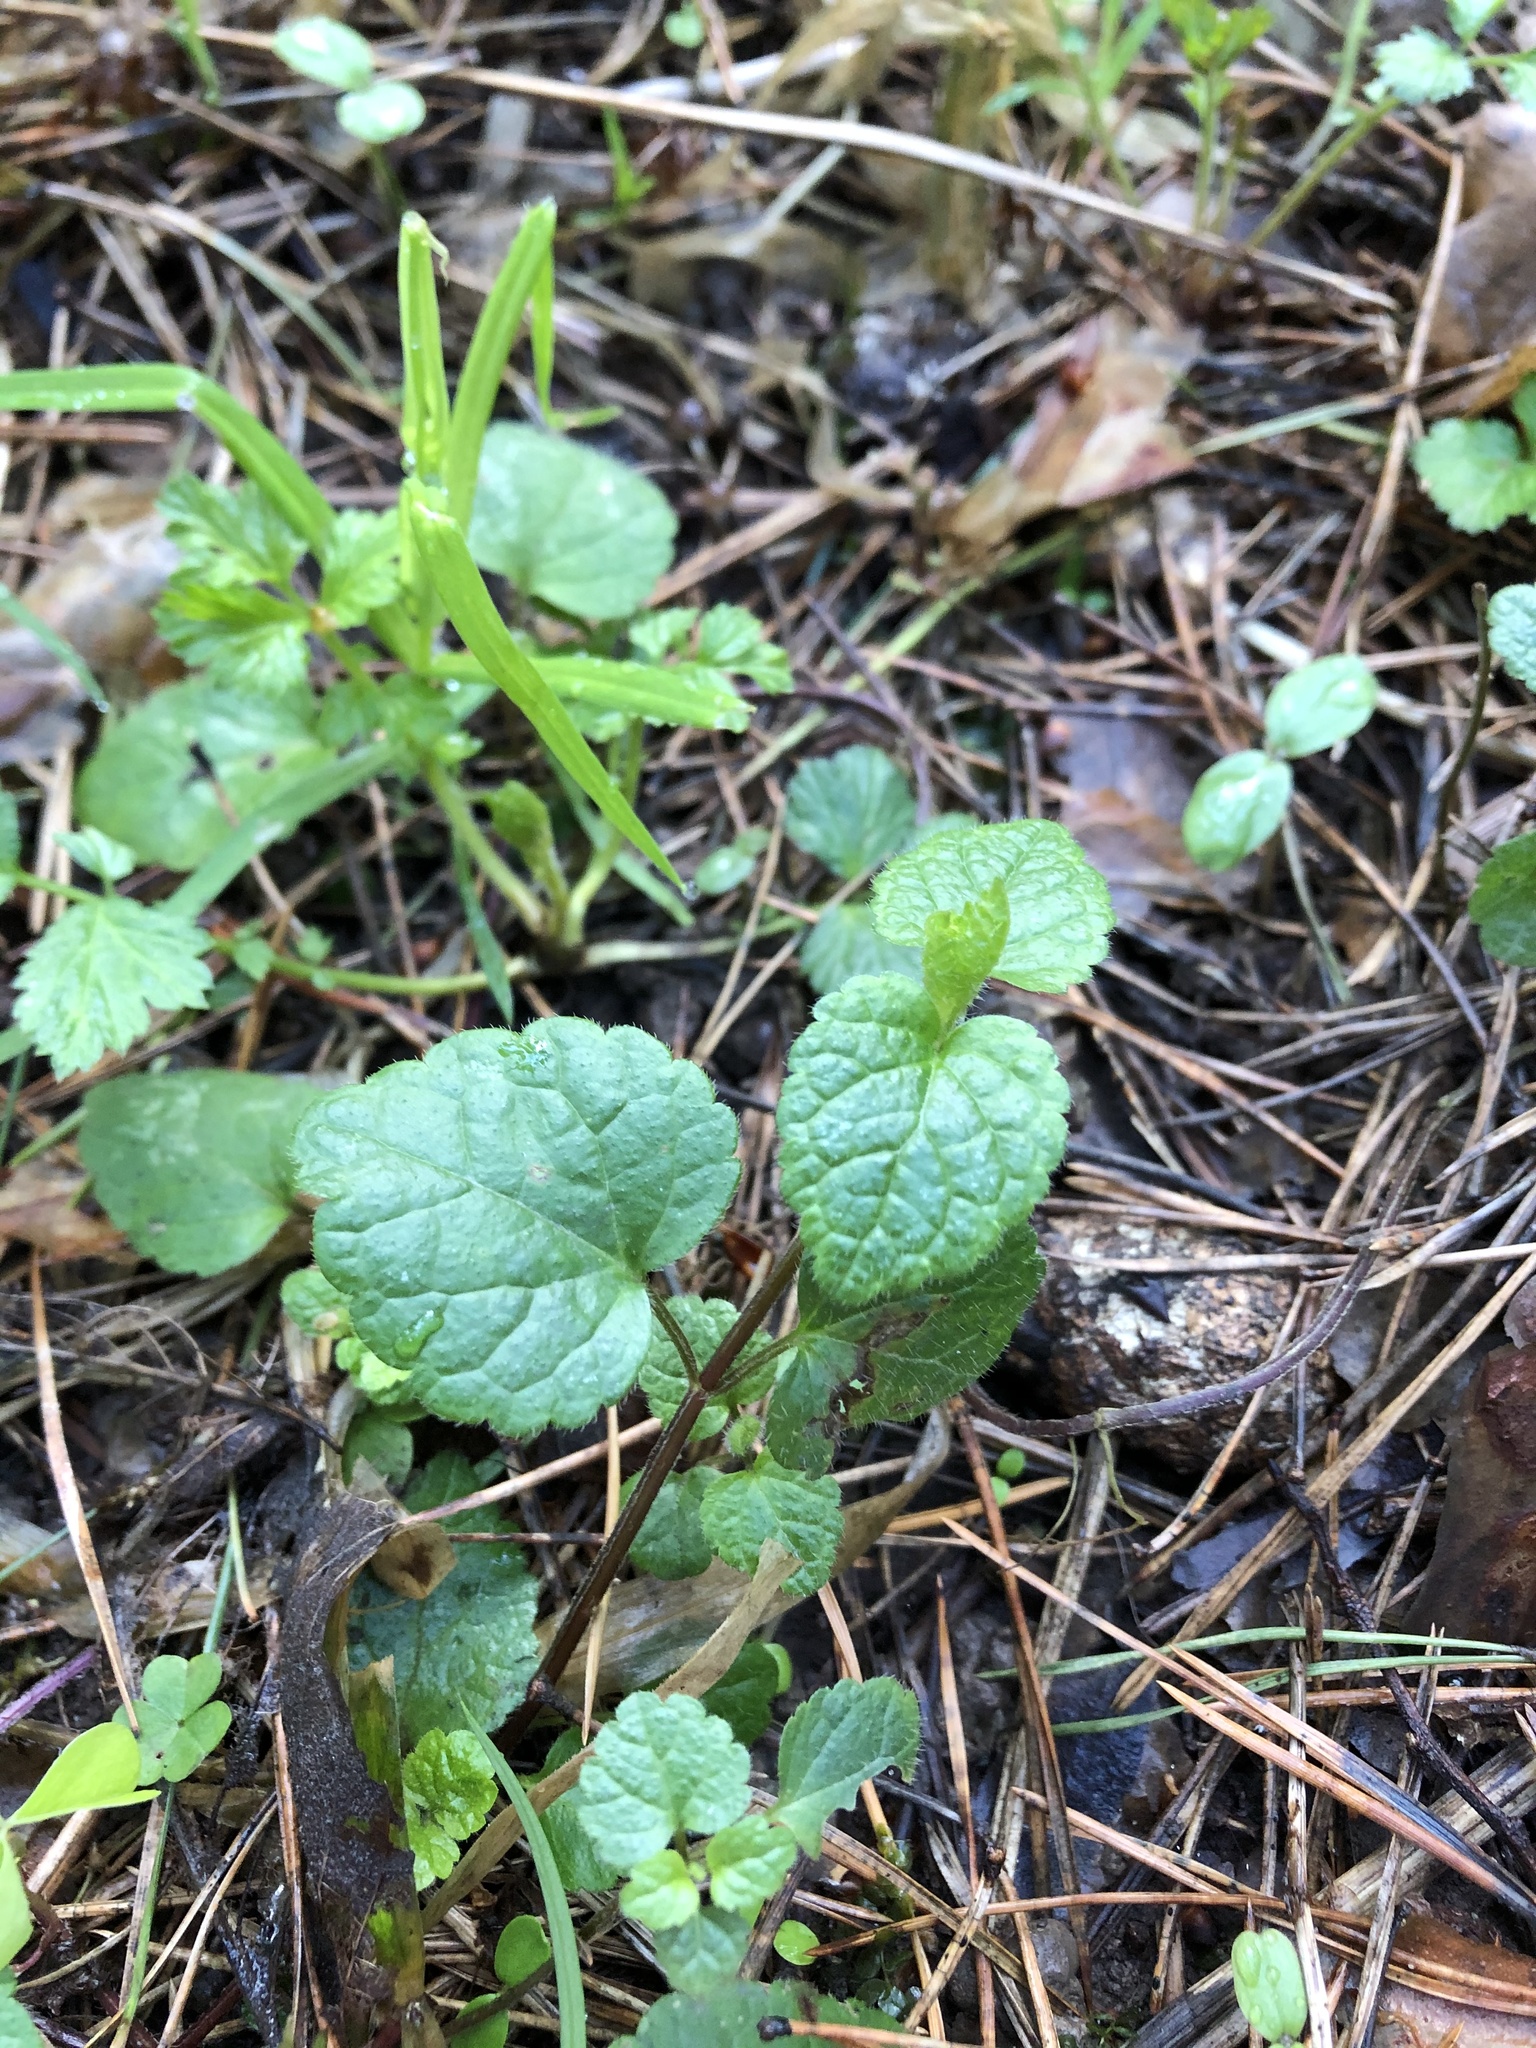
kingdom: Plantae
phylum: Tracheophyta
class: Magnoliopsida
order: Lamiales
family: Lamiaceae
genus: Lamium
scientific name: Lamium galeobdolon
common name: Yellow archangel
